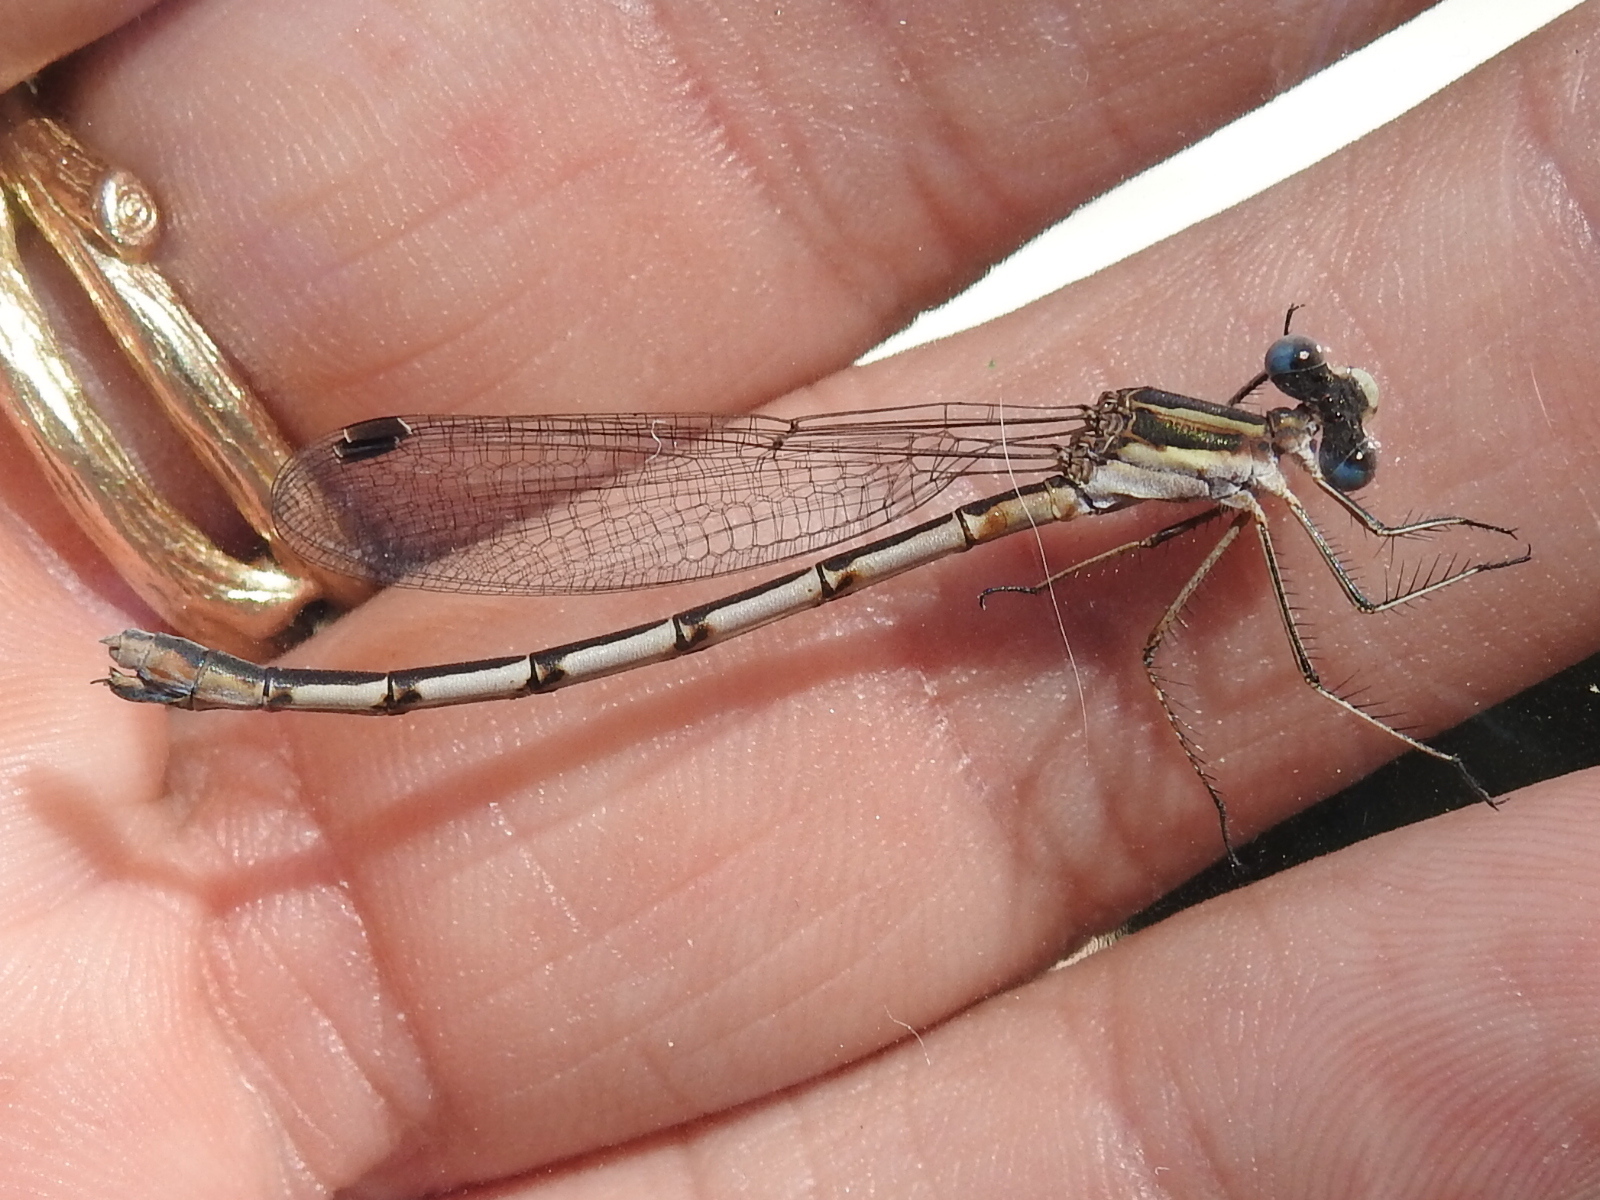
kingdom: Animalia
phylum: Arthropoda
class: Insecta
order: Odonata
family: Lestidae
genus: Lestes
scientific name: Lestes australis
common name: Southern spreadwing
